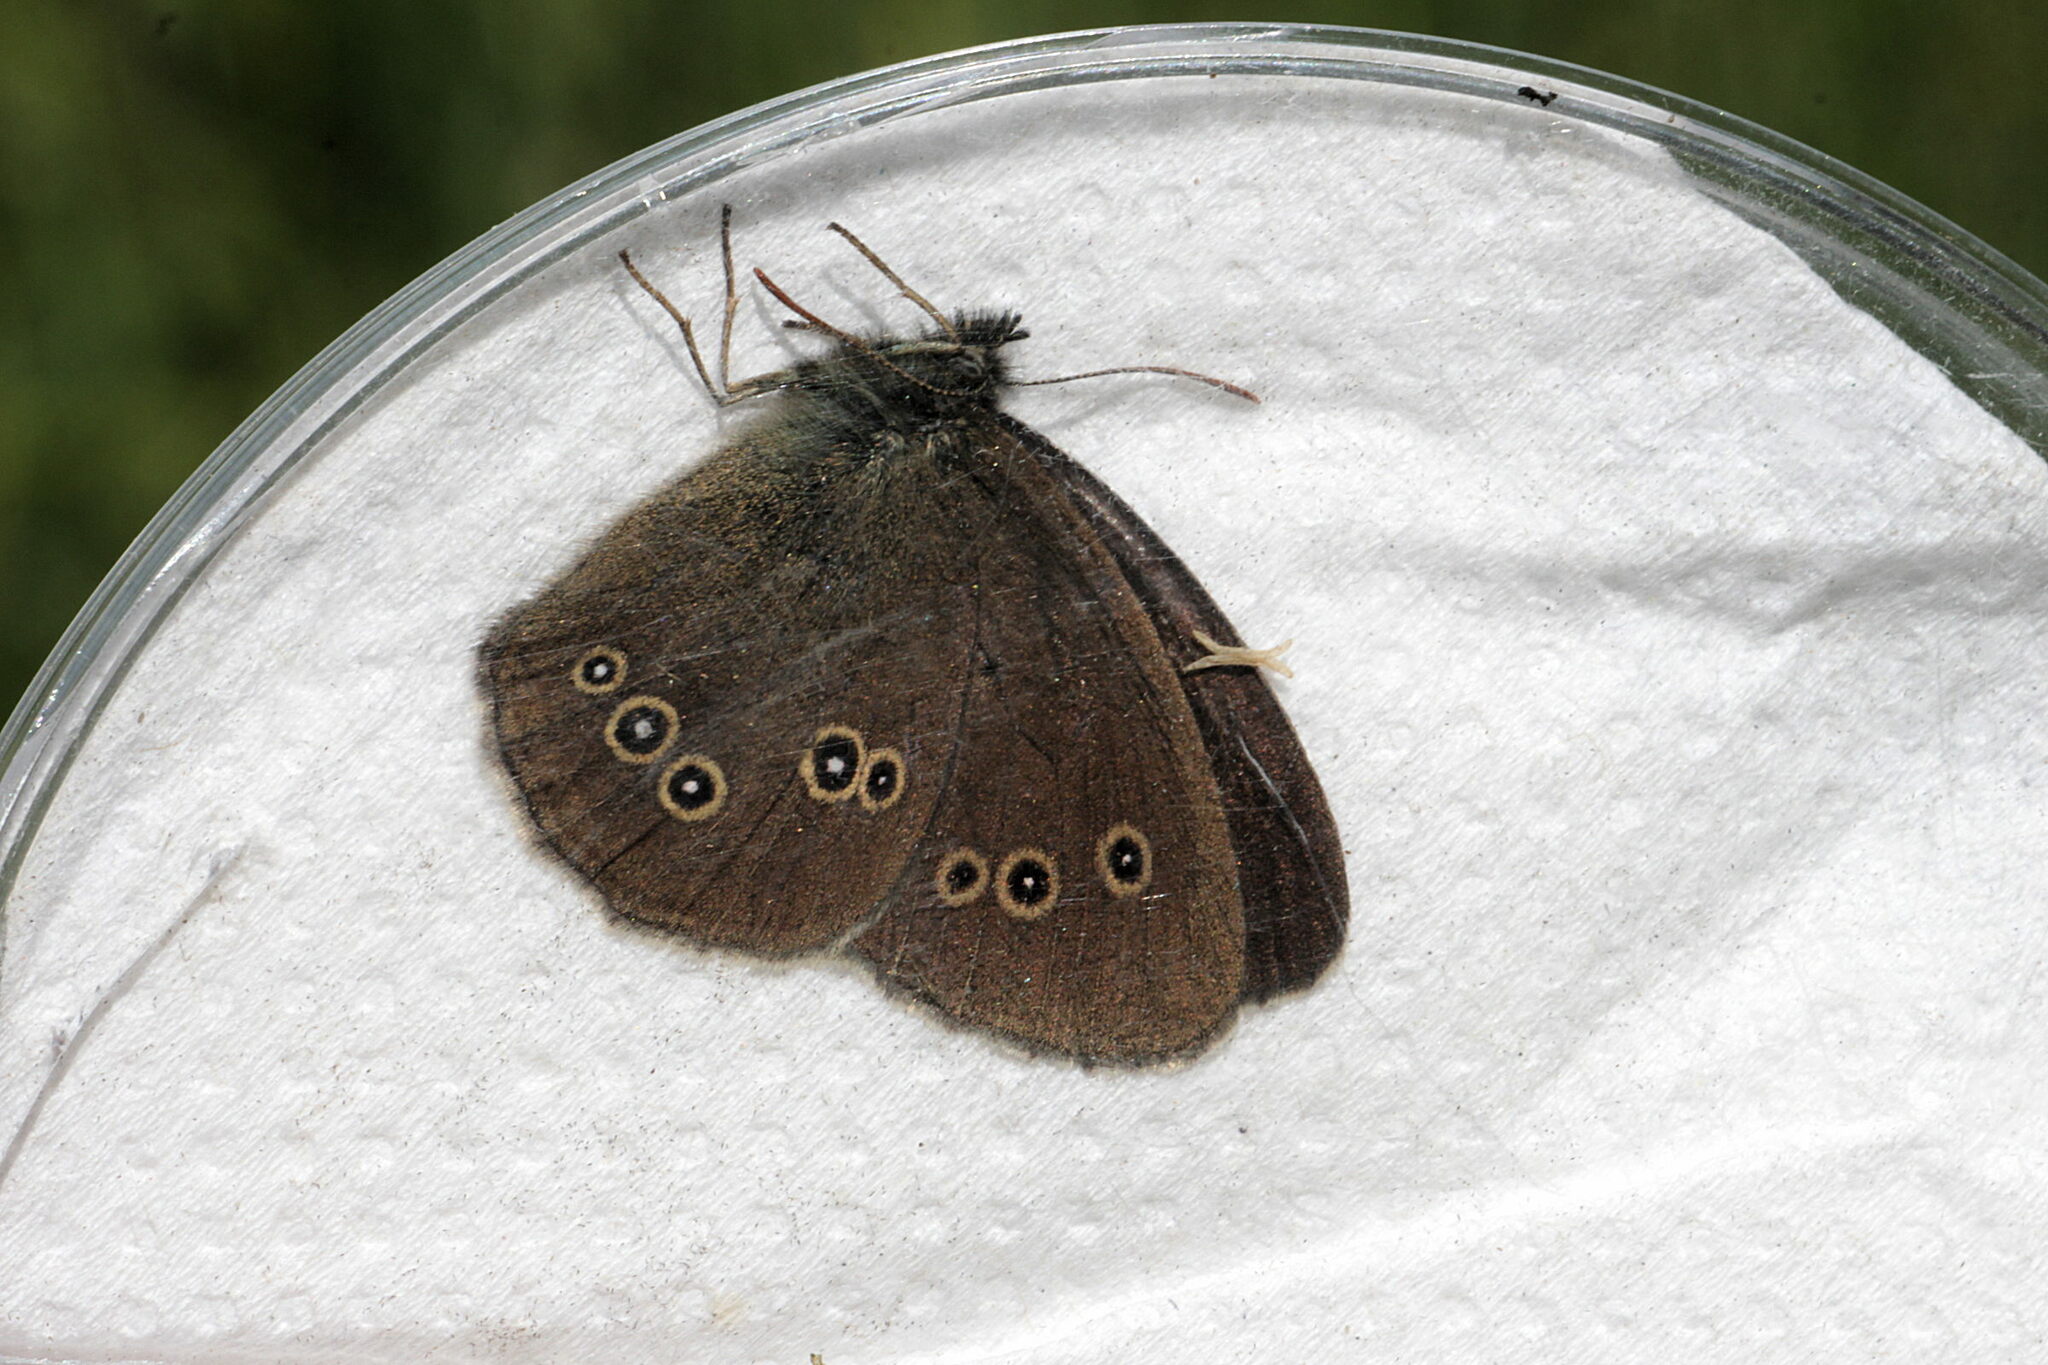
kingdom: Animalia
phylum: Arthropoda
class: Insecta
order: Lepidoptera
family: Nymphalidae
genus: Aphantopus
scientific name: Aphantopus hyperantus
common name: Ringlet
